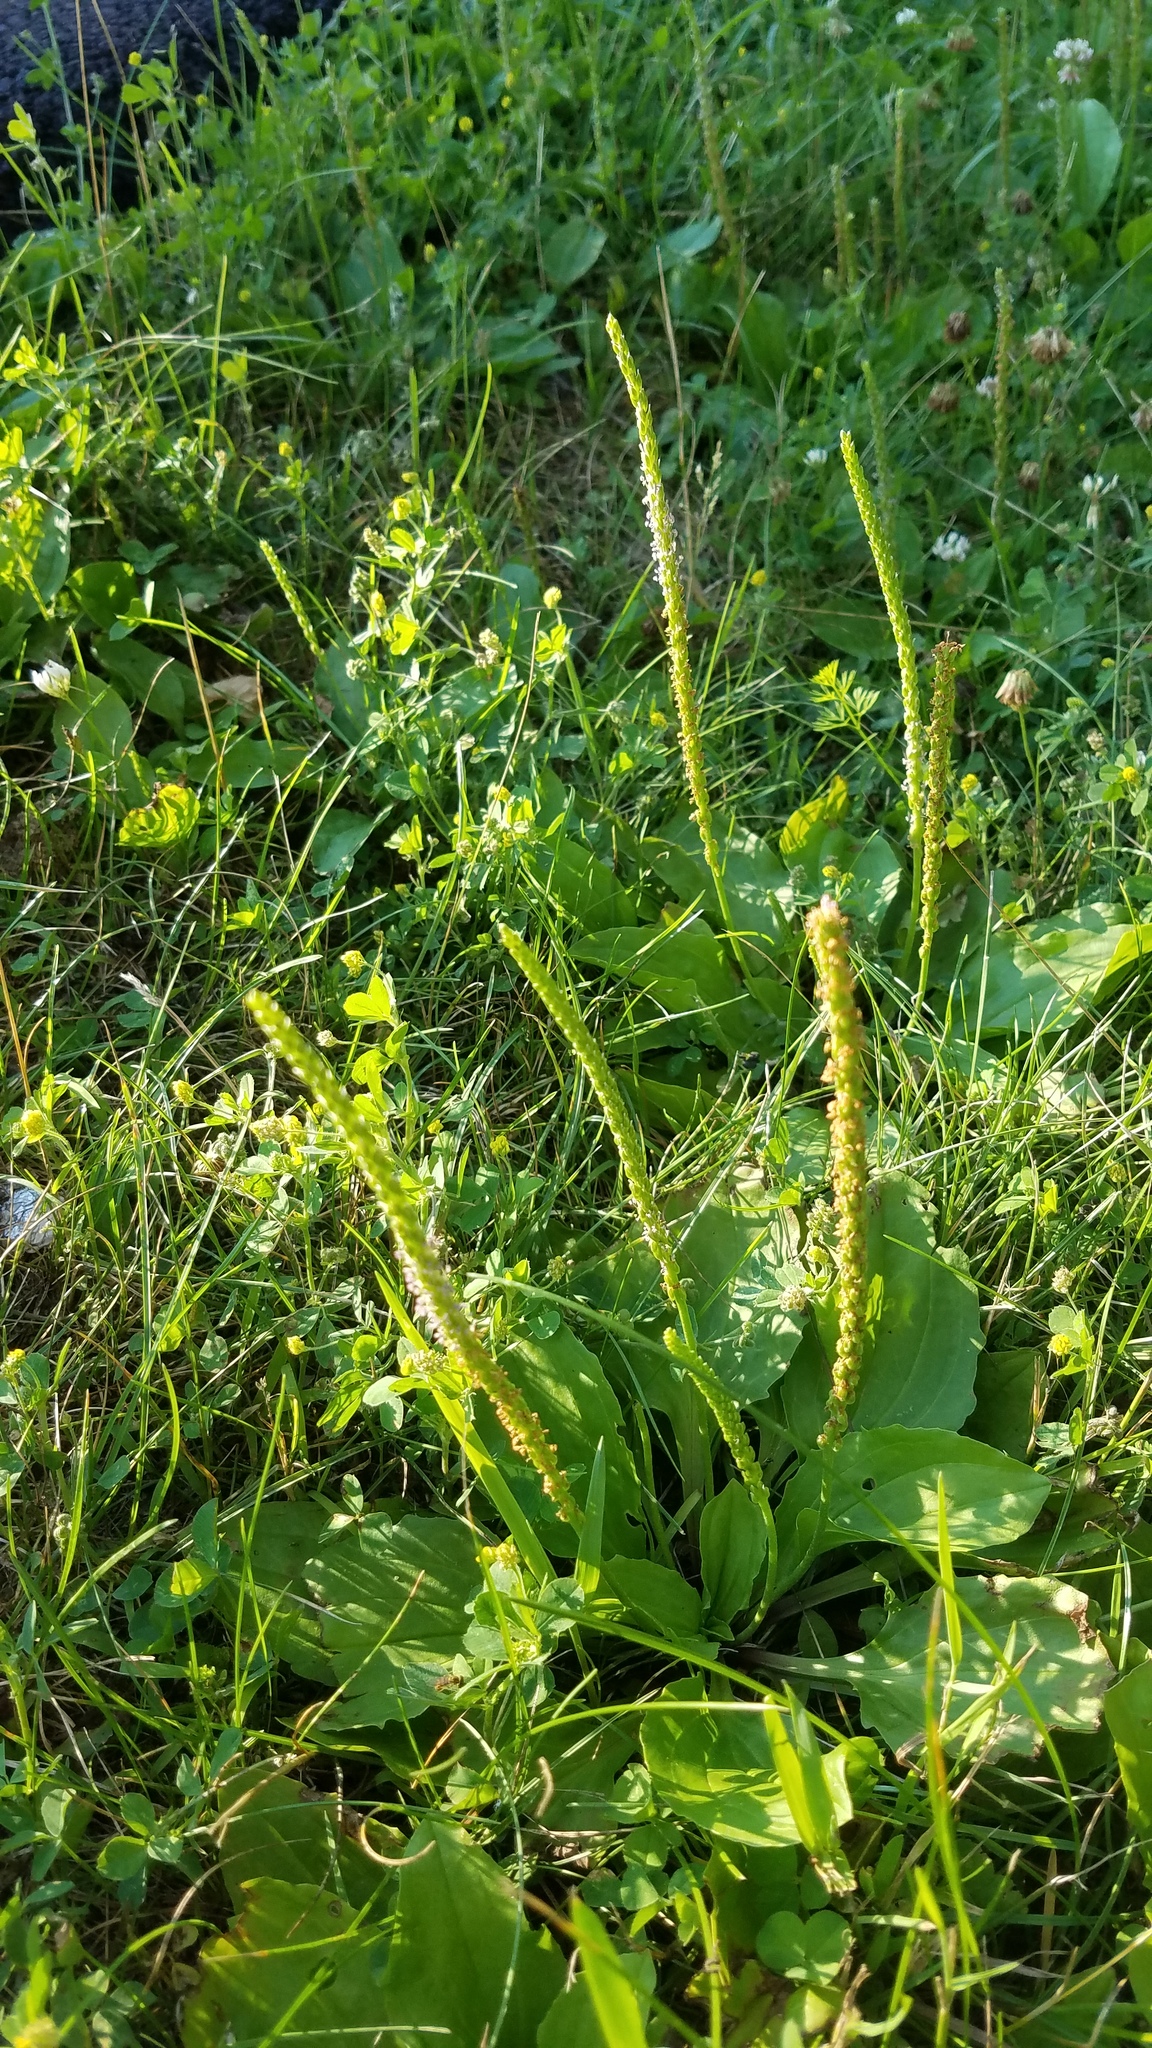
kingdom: Plantae
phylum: Tracheophyta
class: Magnoliopsida
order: Lamiales
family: Plantaginaceae
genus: Plantago
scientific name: Plantago major
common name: Common plantain
